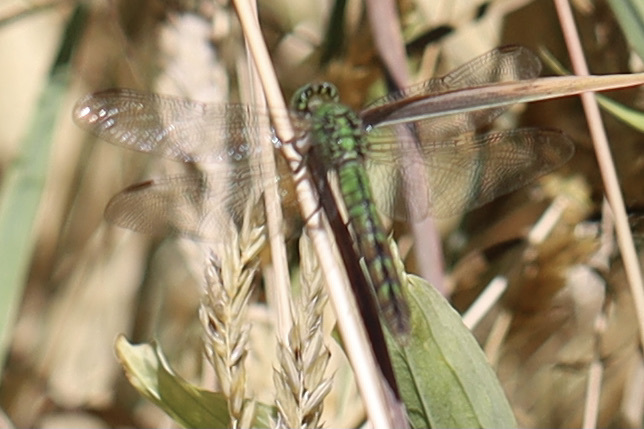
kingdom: Animalia
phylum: Arthropoda
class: Insecta
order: Odonata
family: Libellulidae
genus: Erythemis
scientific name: Erythemis collocata
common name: Western pondhawk
